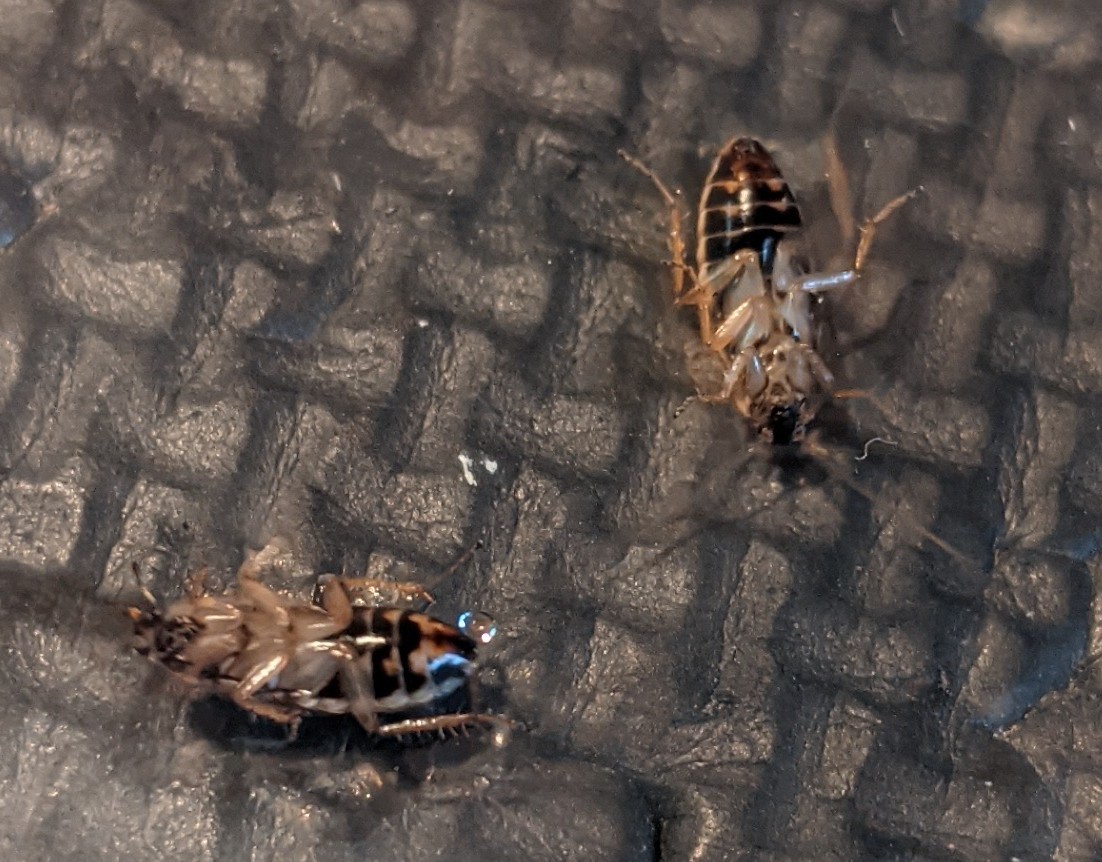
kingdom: Animalia
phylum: Arthropoda
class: Insecta
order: Blattodea
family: Ectobiidae
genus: Ectobius
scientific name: Ectobius lapponicus
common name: Dusky cockroach
